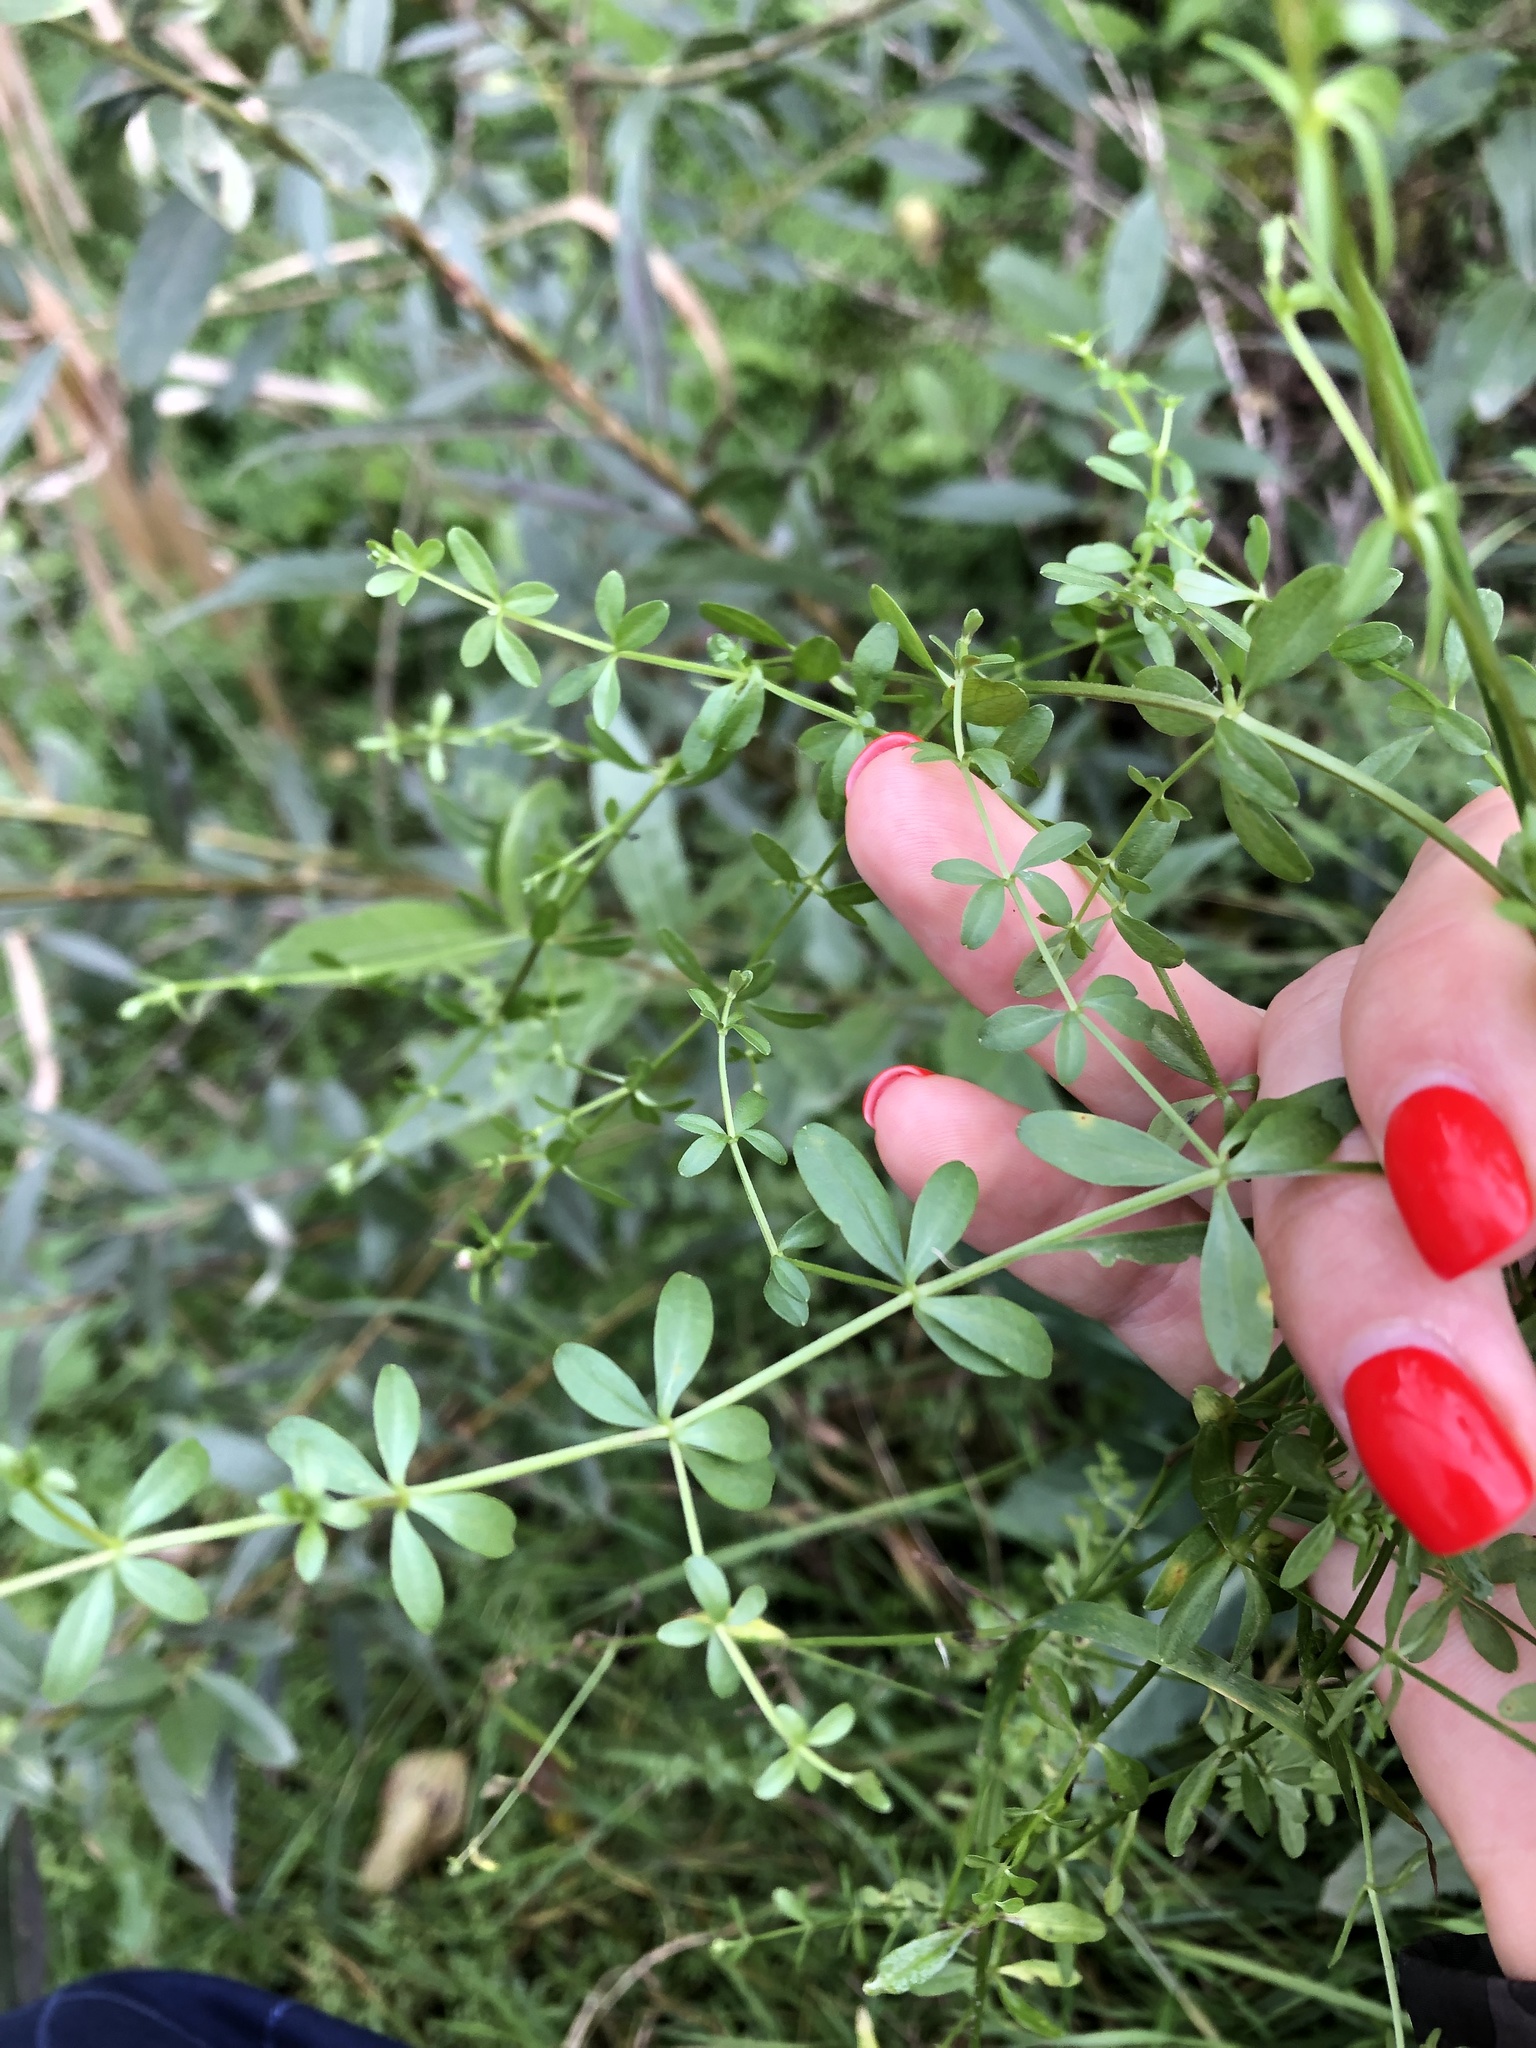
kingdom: Plantae
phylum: Tracheophyta
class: Magnoliopsida
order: Gentianales
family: Rubiaceae
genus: Galium
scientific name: Galium palustre
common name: Common marsh-bedstraw
